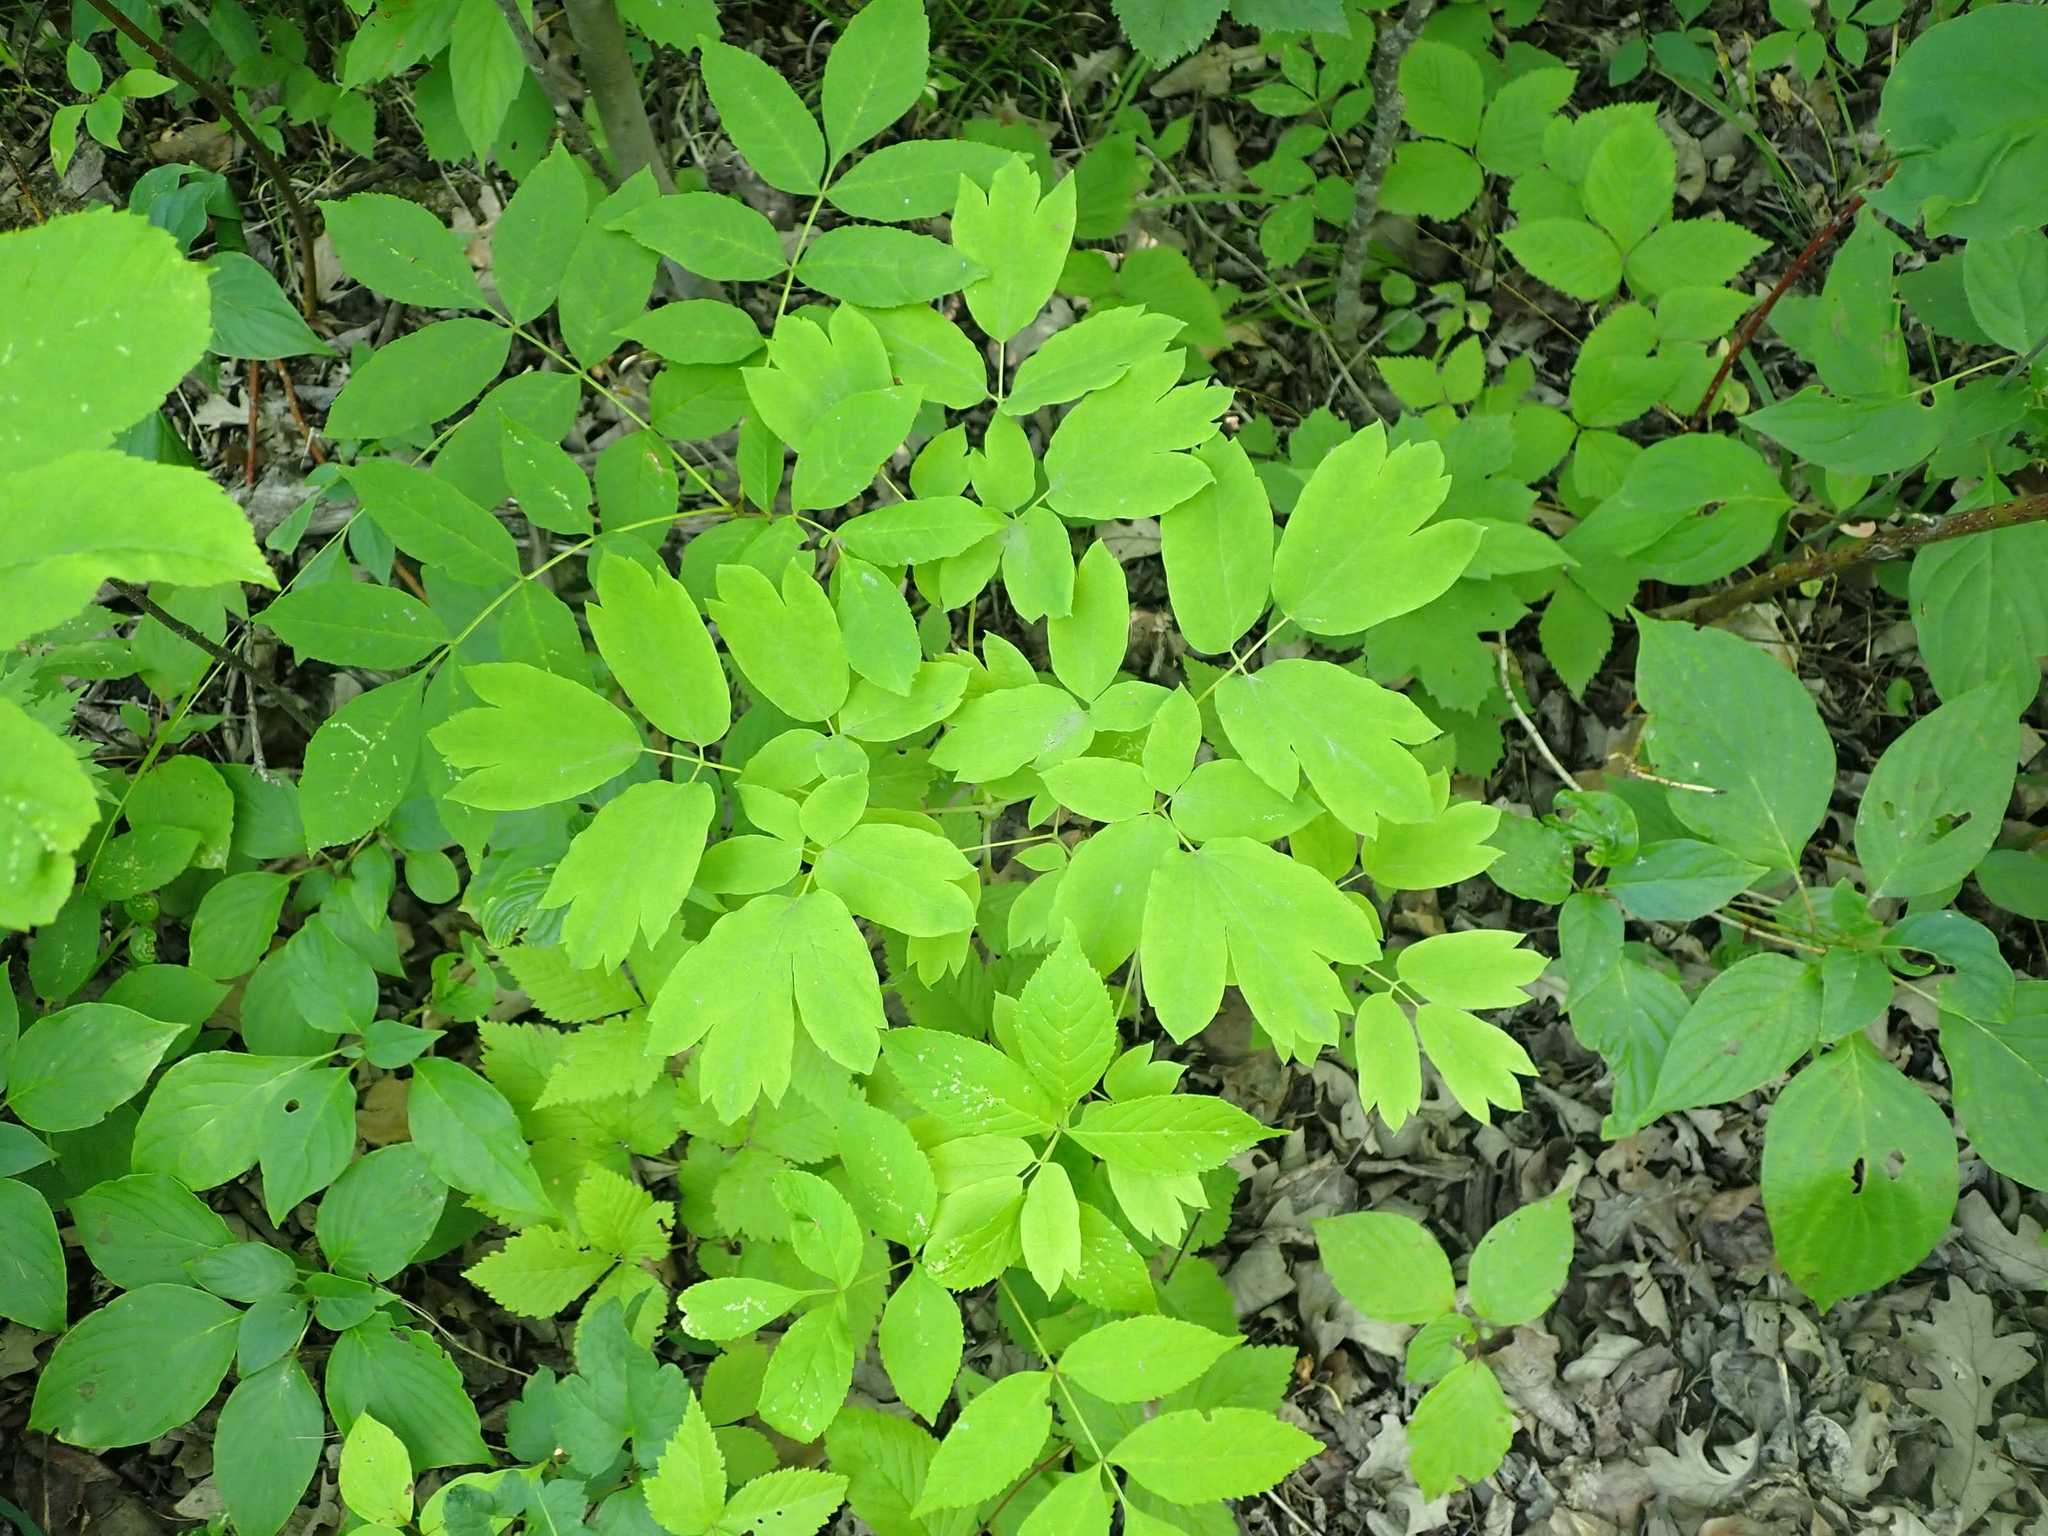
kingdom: Plantae
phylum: Tracheophyta
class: Magnoliopsida
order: Ranunculales
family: Berberidaceae
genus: Caulophyllum
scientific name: Caulophyllum thalictroides
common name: Blue cohosh
